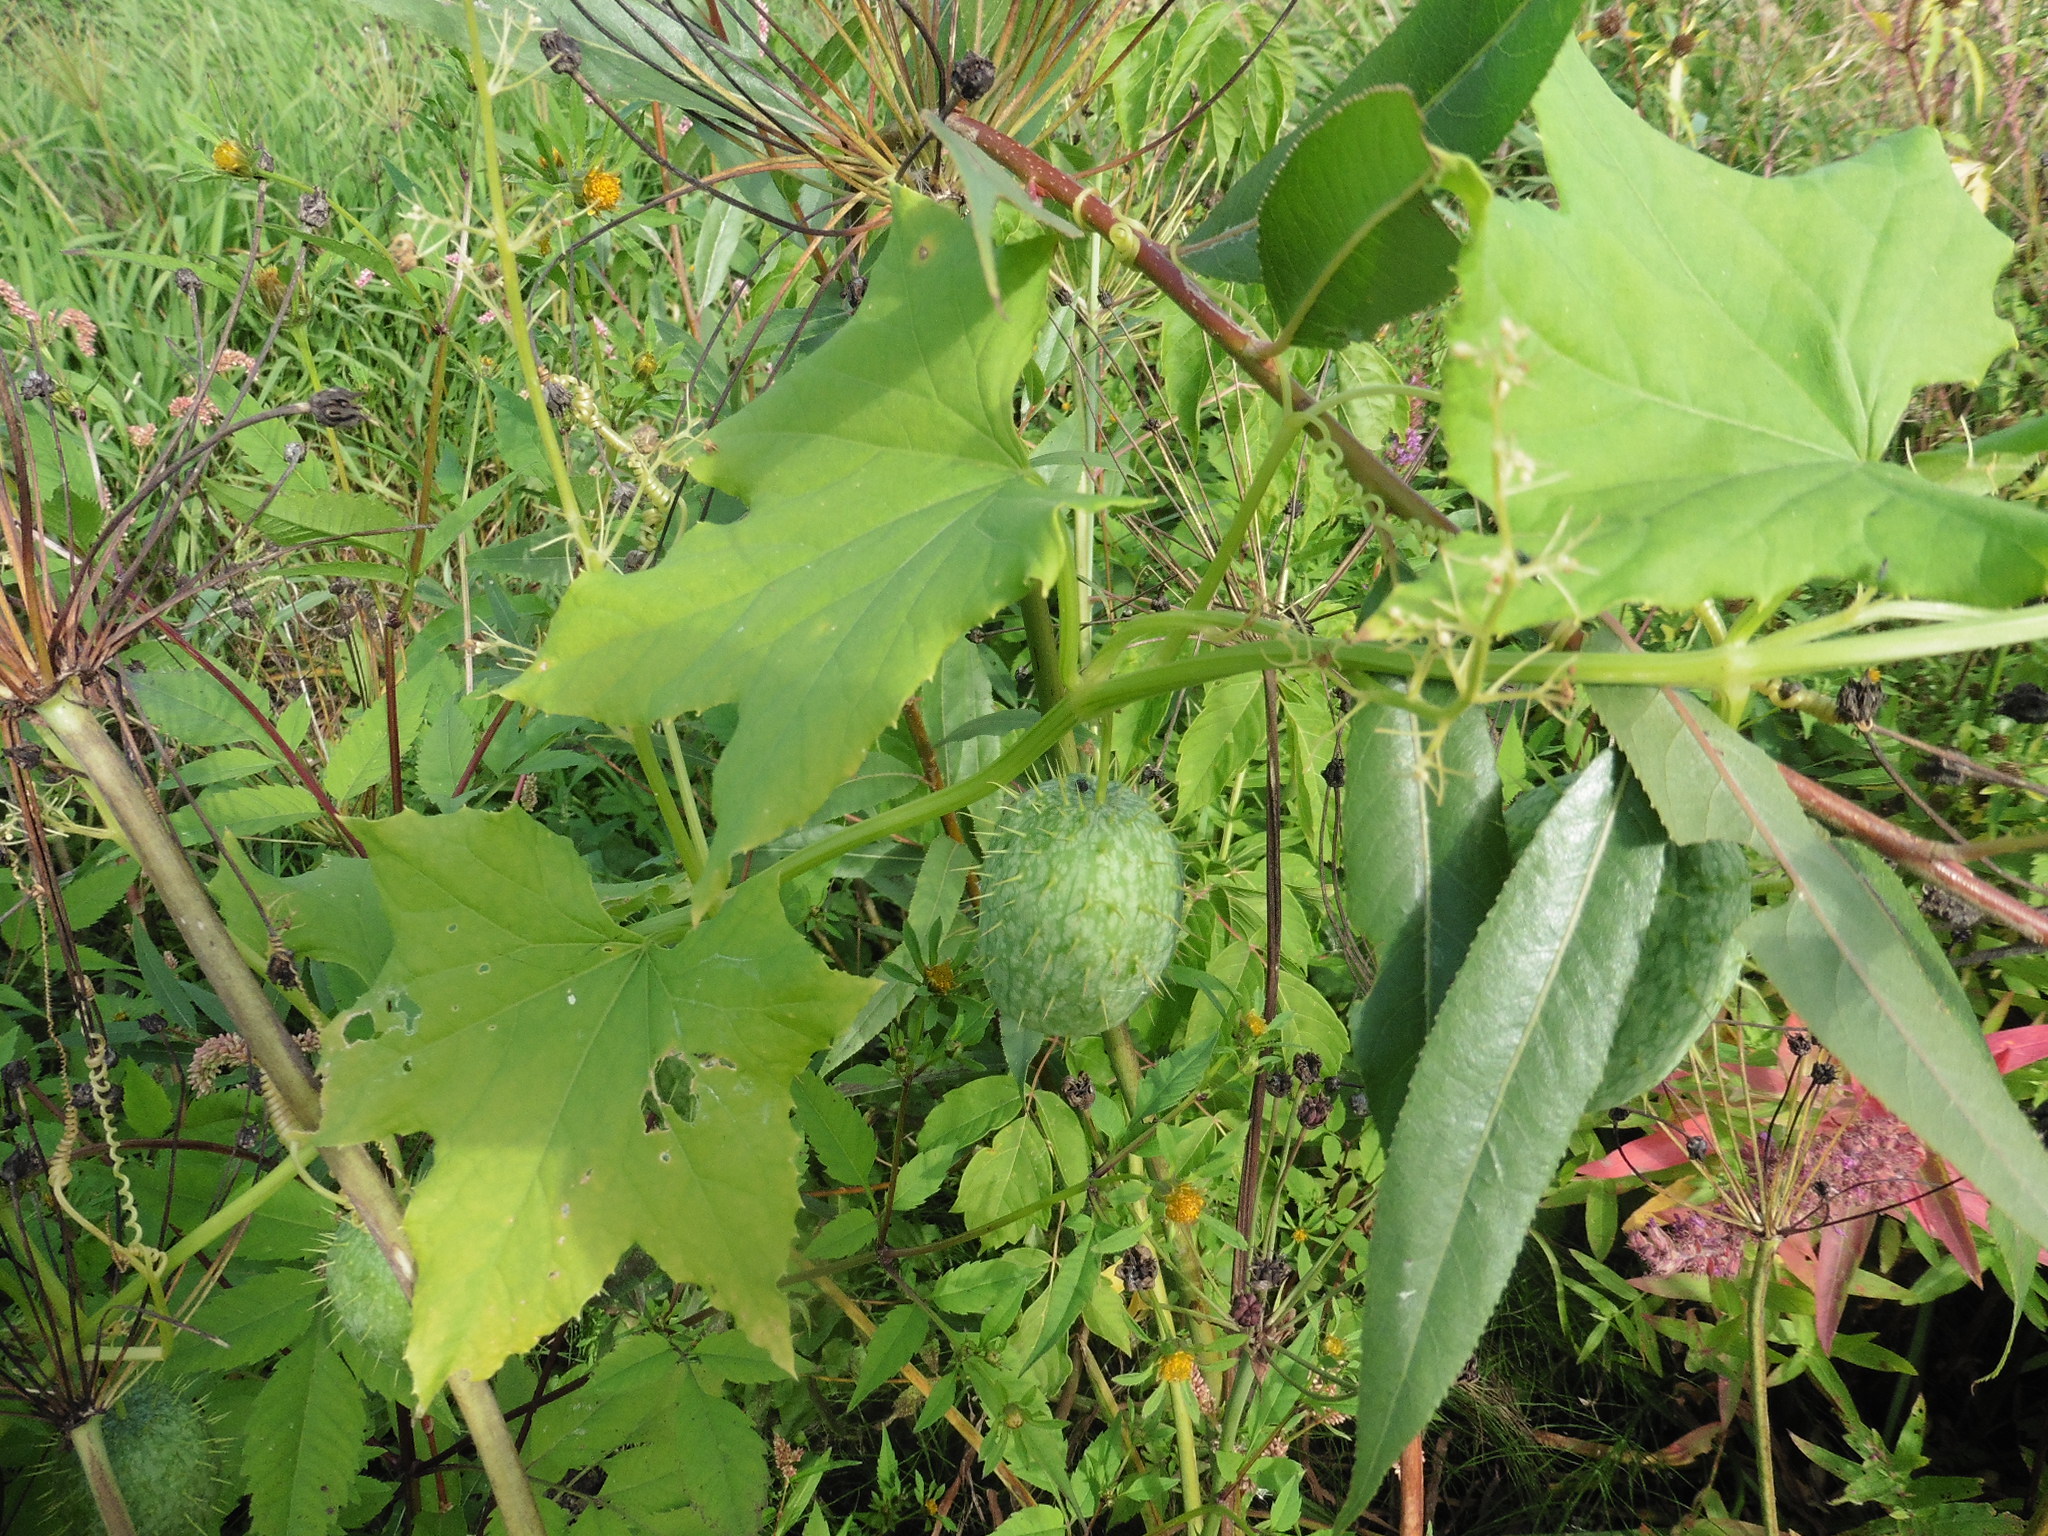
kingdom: Plantae
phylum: Tracheophyta
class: Magnoliopsida
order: Cucurbitales
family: Cucurbitaceae
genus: Echinocystis
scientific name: Echinocystis lobata
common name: Wild cucumber
